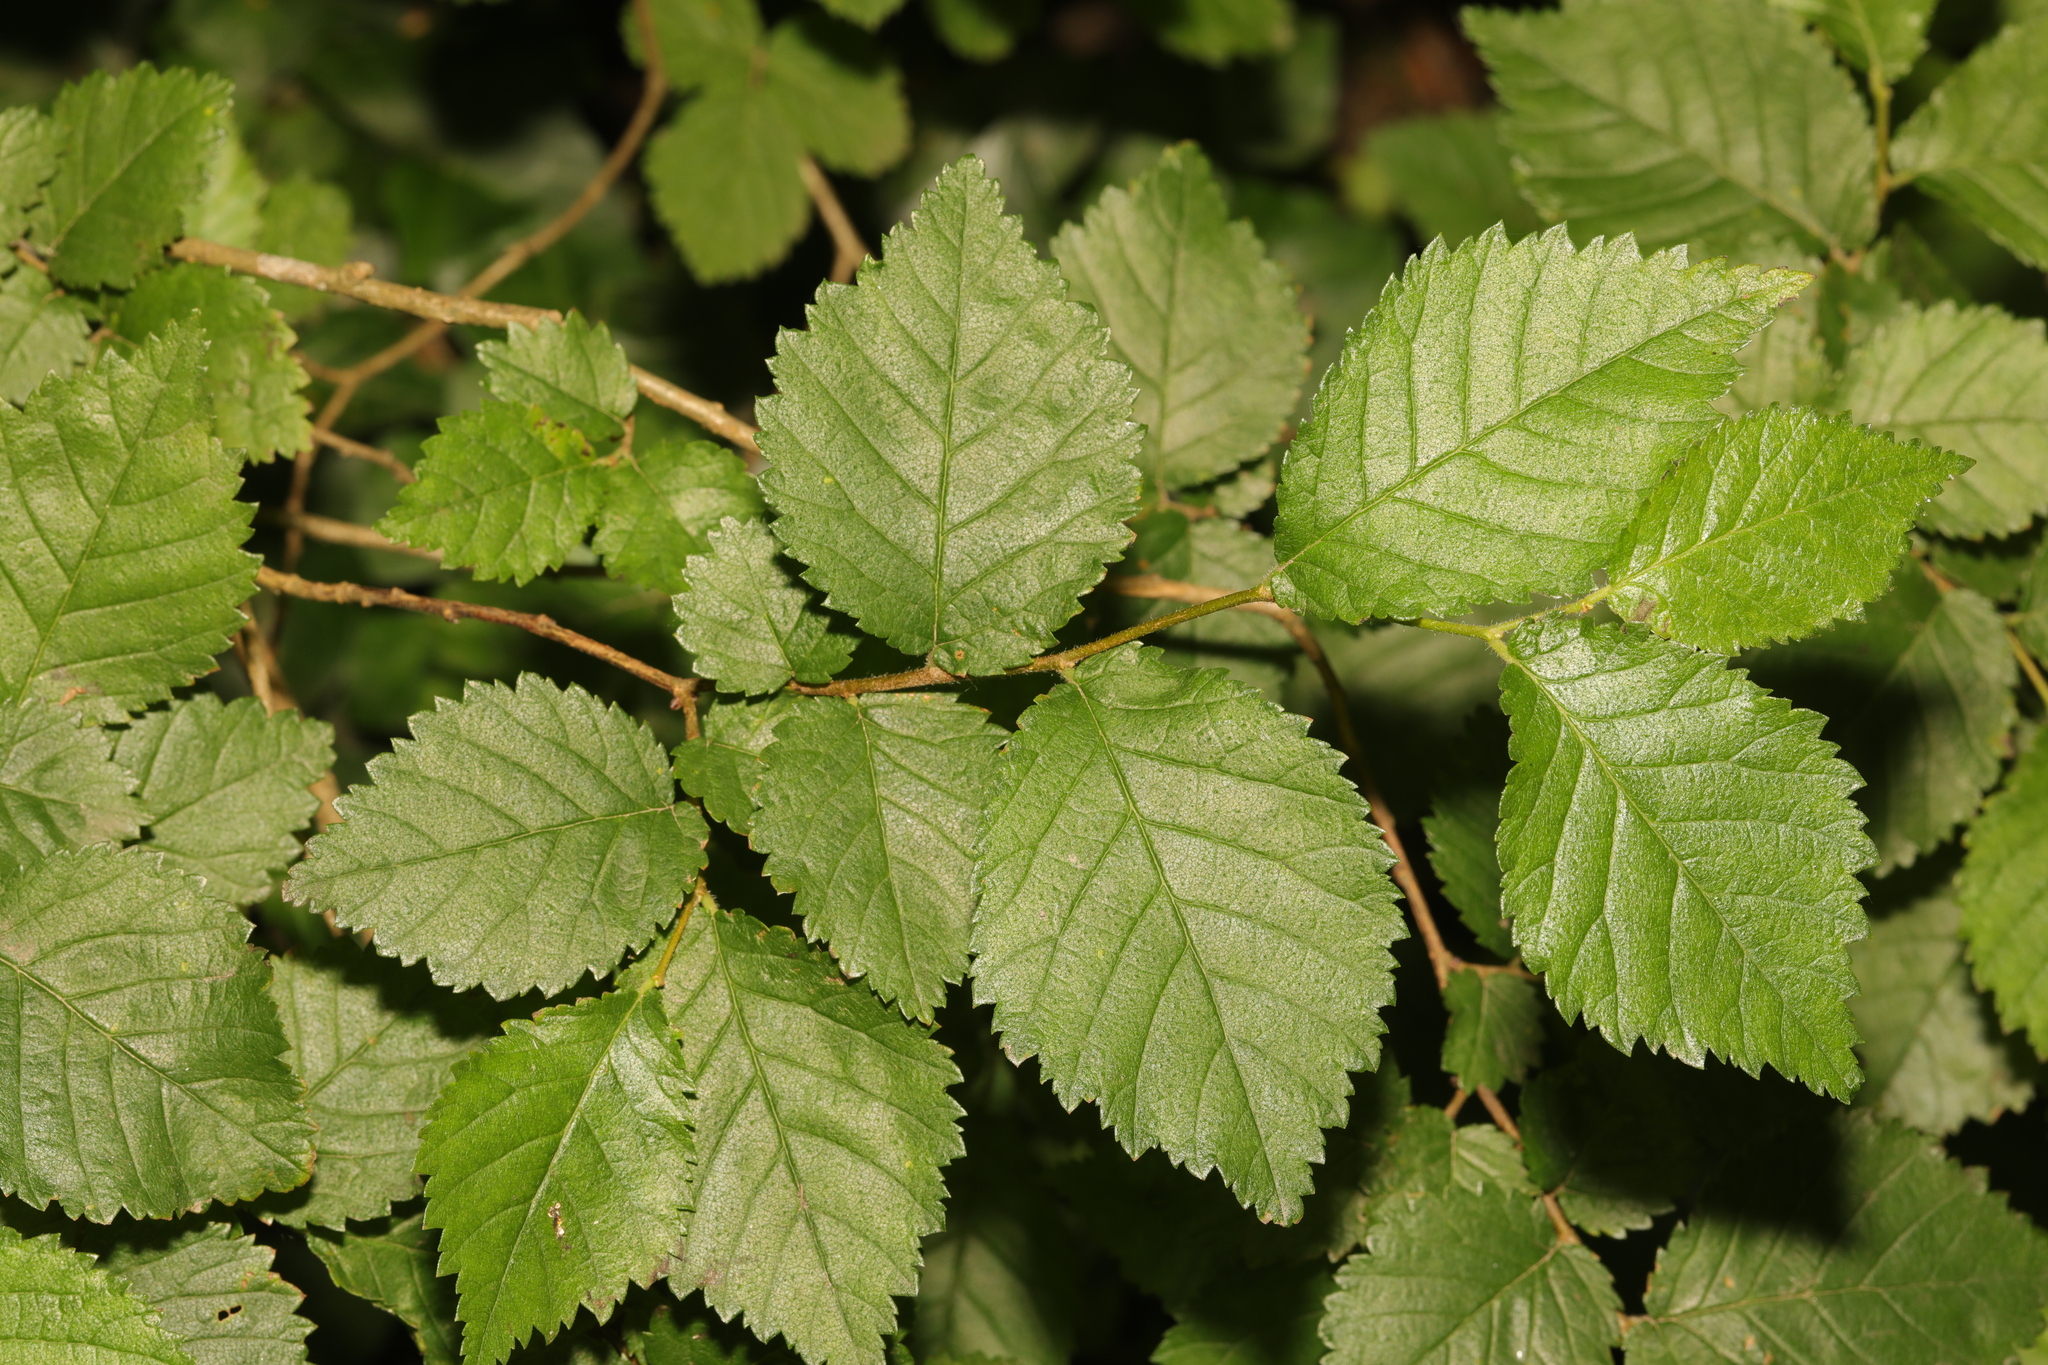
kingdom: Plantae
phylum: Tracheophyta
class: Magnoliopsida
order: Rosales
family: Ulmaceae
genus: Ulmus
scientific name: Ulmus minor
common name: Small-leaved elm
